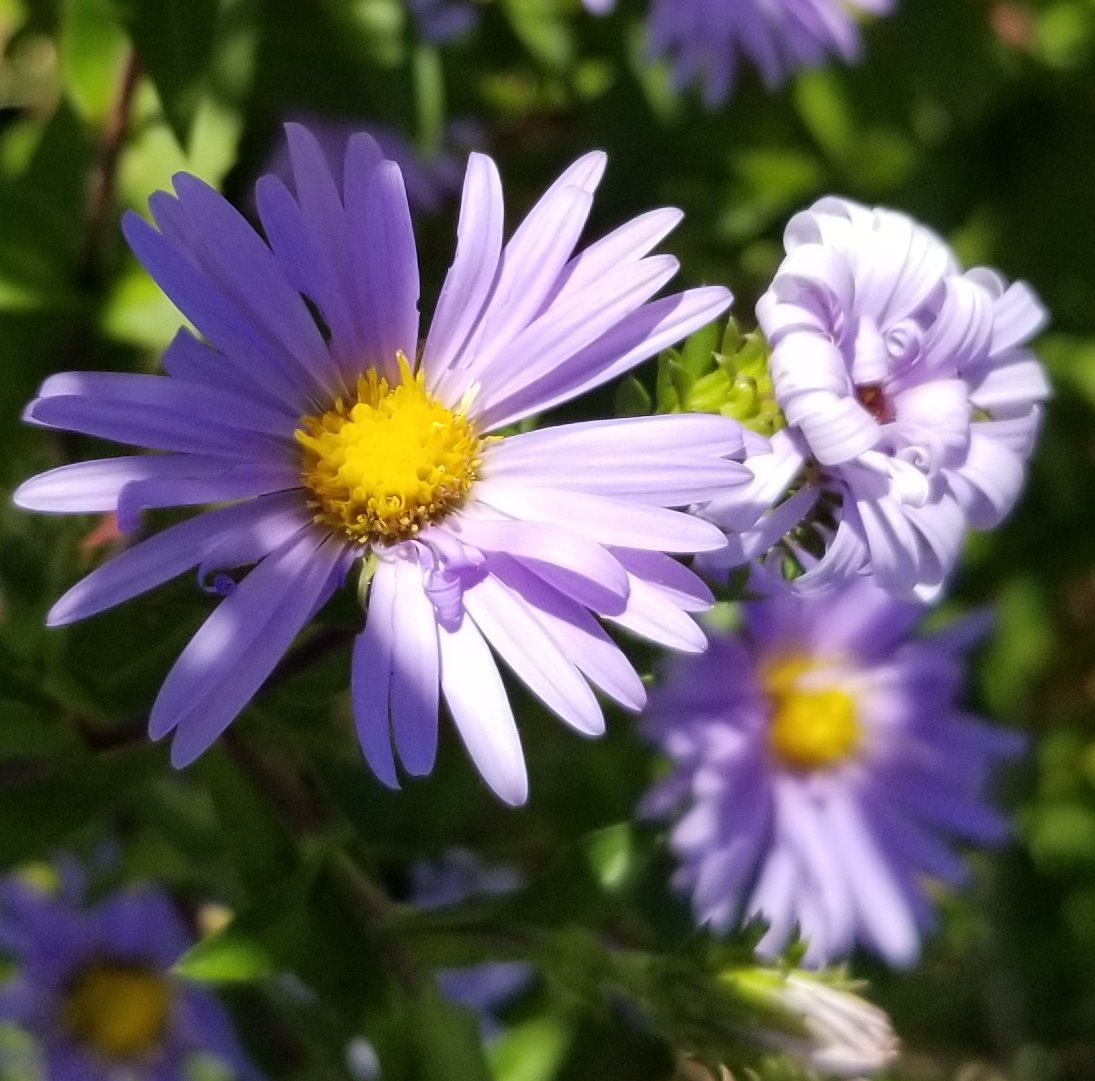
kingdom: Plantae
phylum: Tracheophyta
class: Magnoliopsida
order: Asterales
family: Asteraceae
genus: Symphyotrichum
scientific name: Symphyotrichum puniceum
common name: Bog aster
